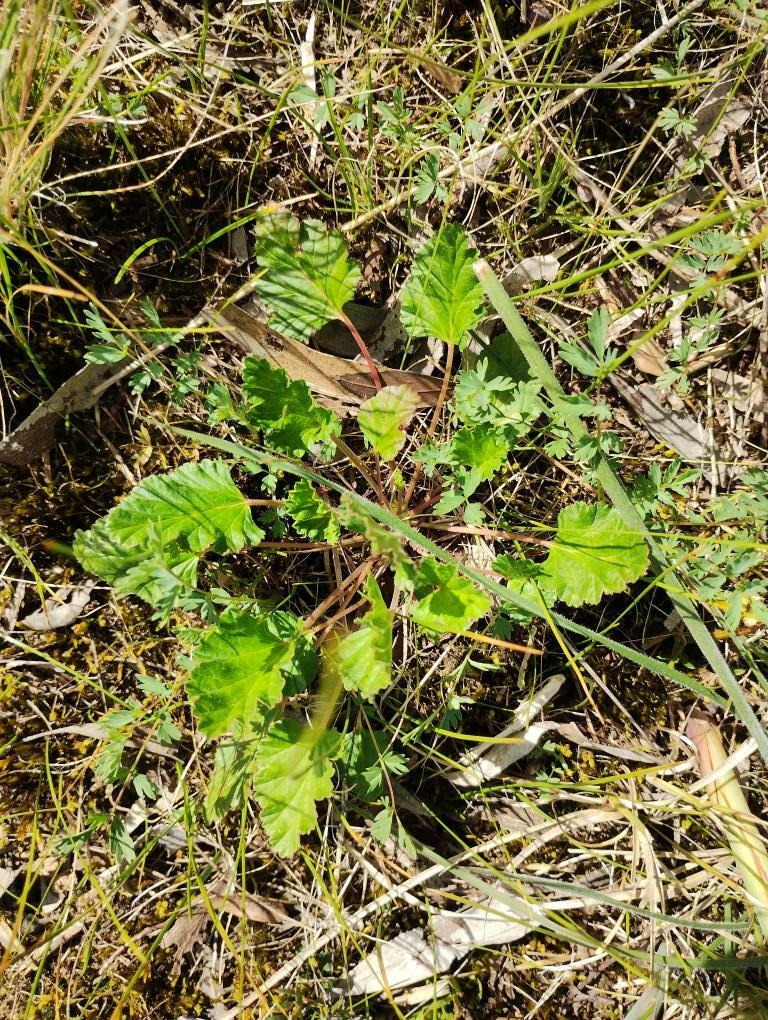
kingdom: Plantae
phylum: Tracheophyta
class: Magnoliopsida
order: Geraniales
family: Geraniaceae
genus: Pelargonium
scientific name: Pelargonium rodneyanum
